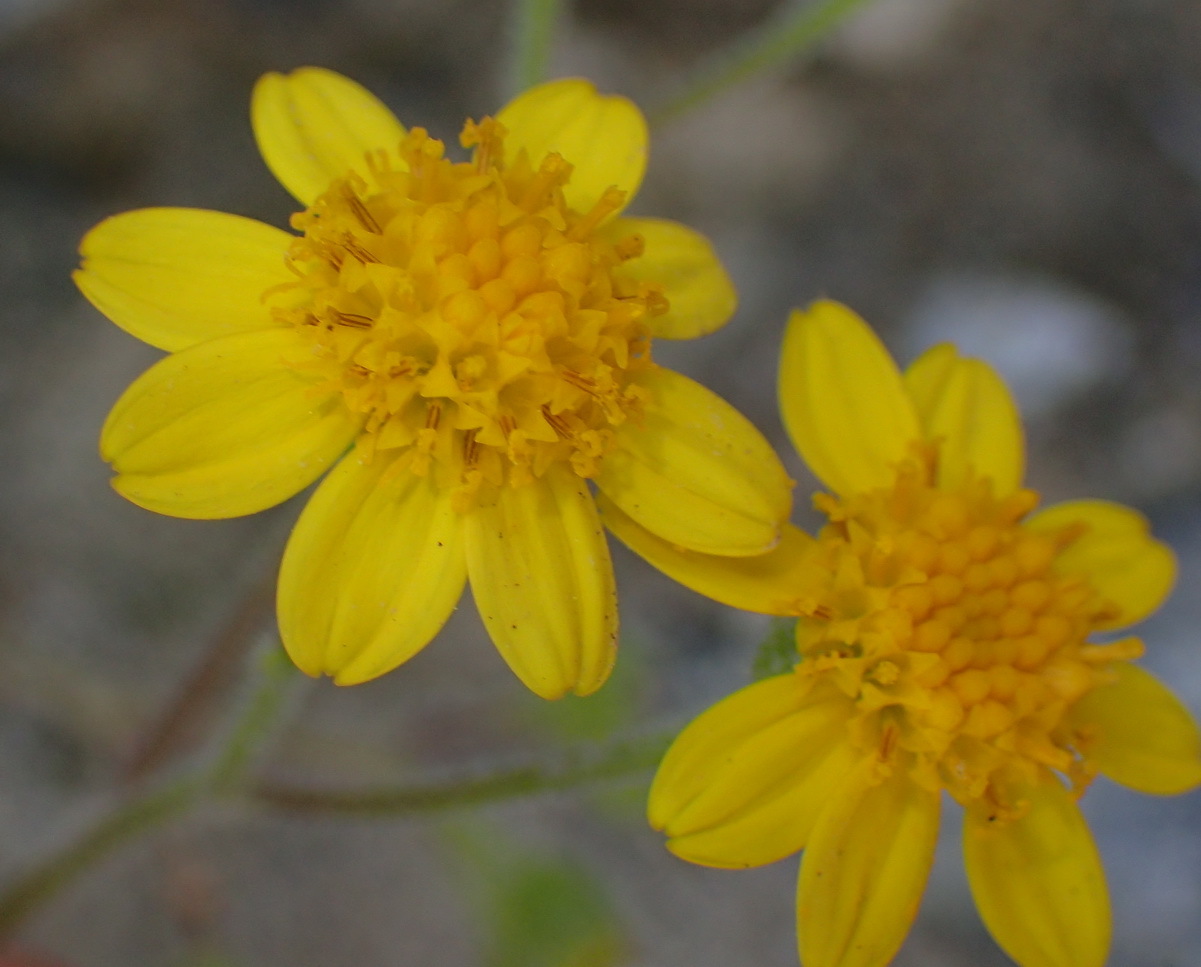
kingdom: Plantae
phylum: Tracheophyta
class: Magnoliopsida
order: Asterales
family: Asteraceae
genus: Cineraria
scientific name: Cineraria geifolia
